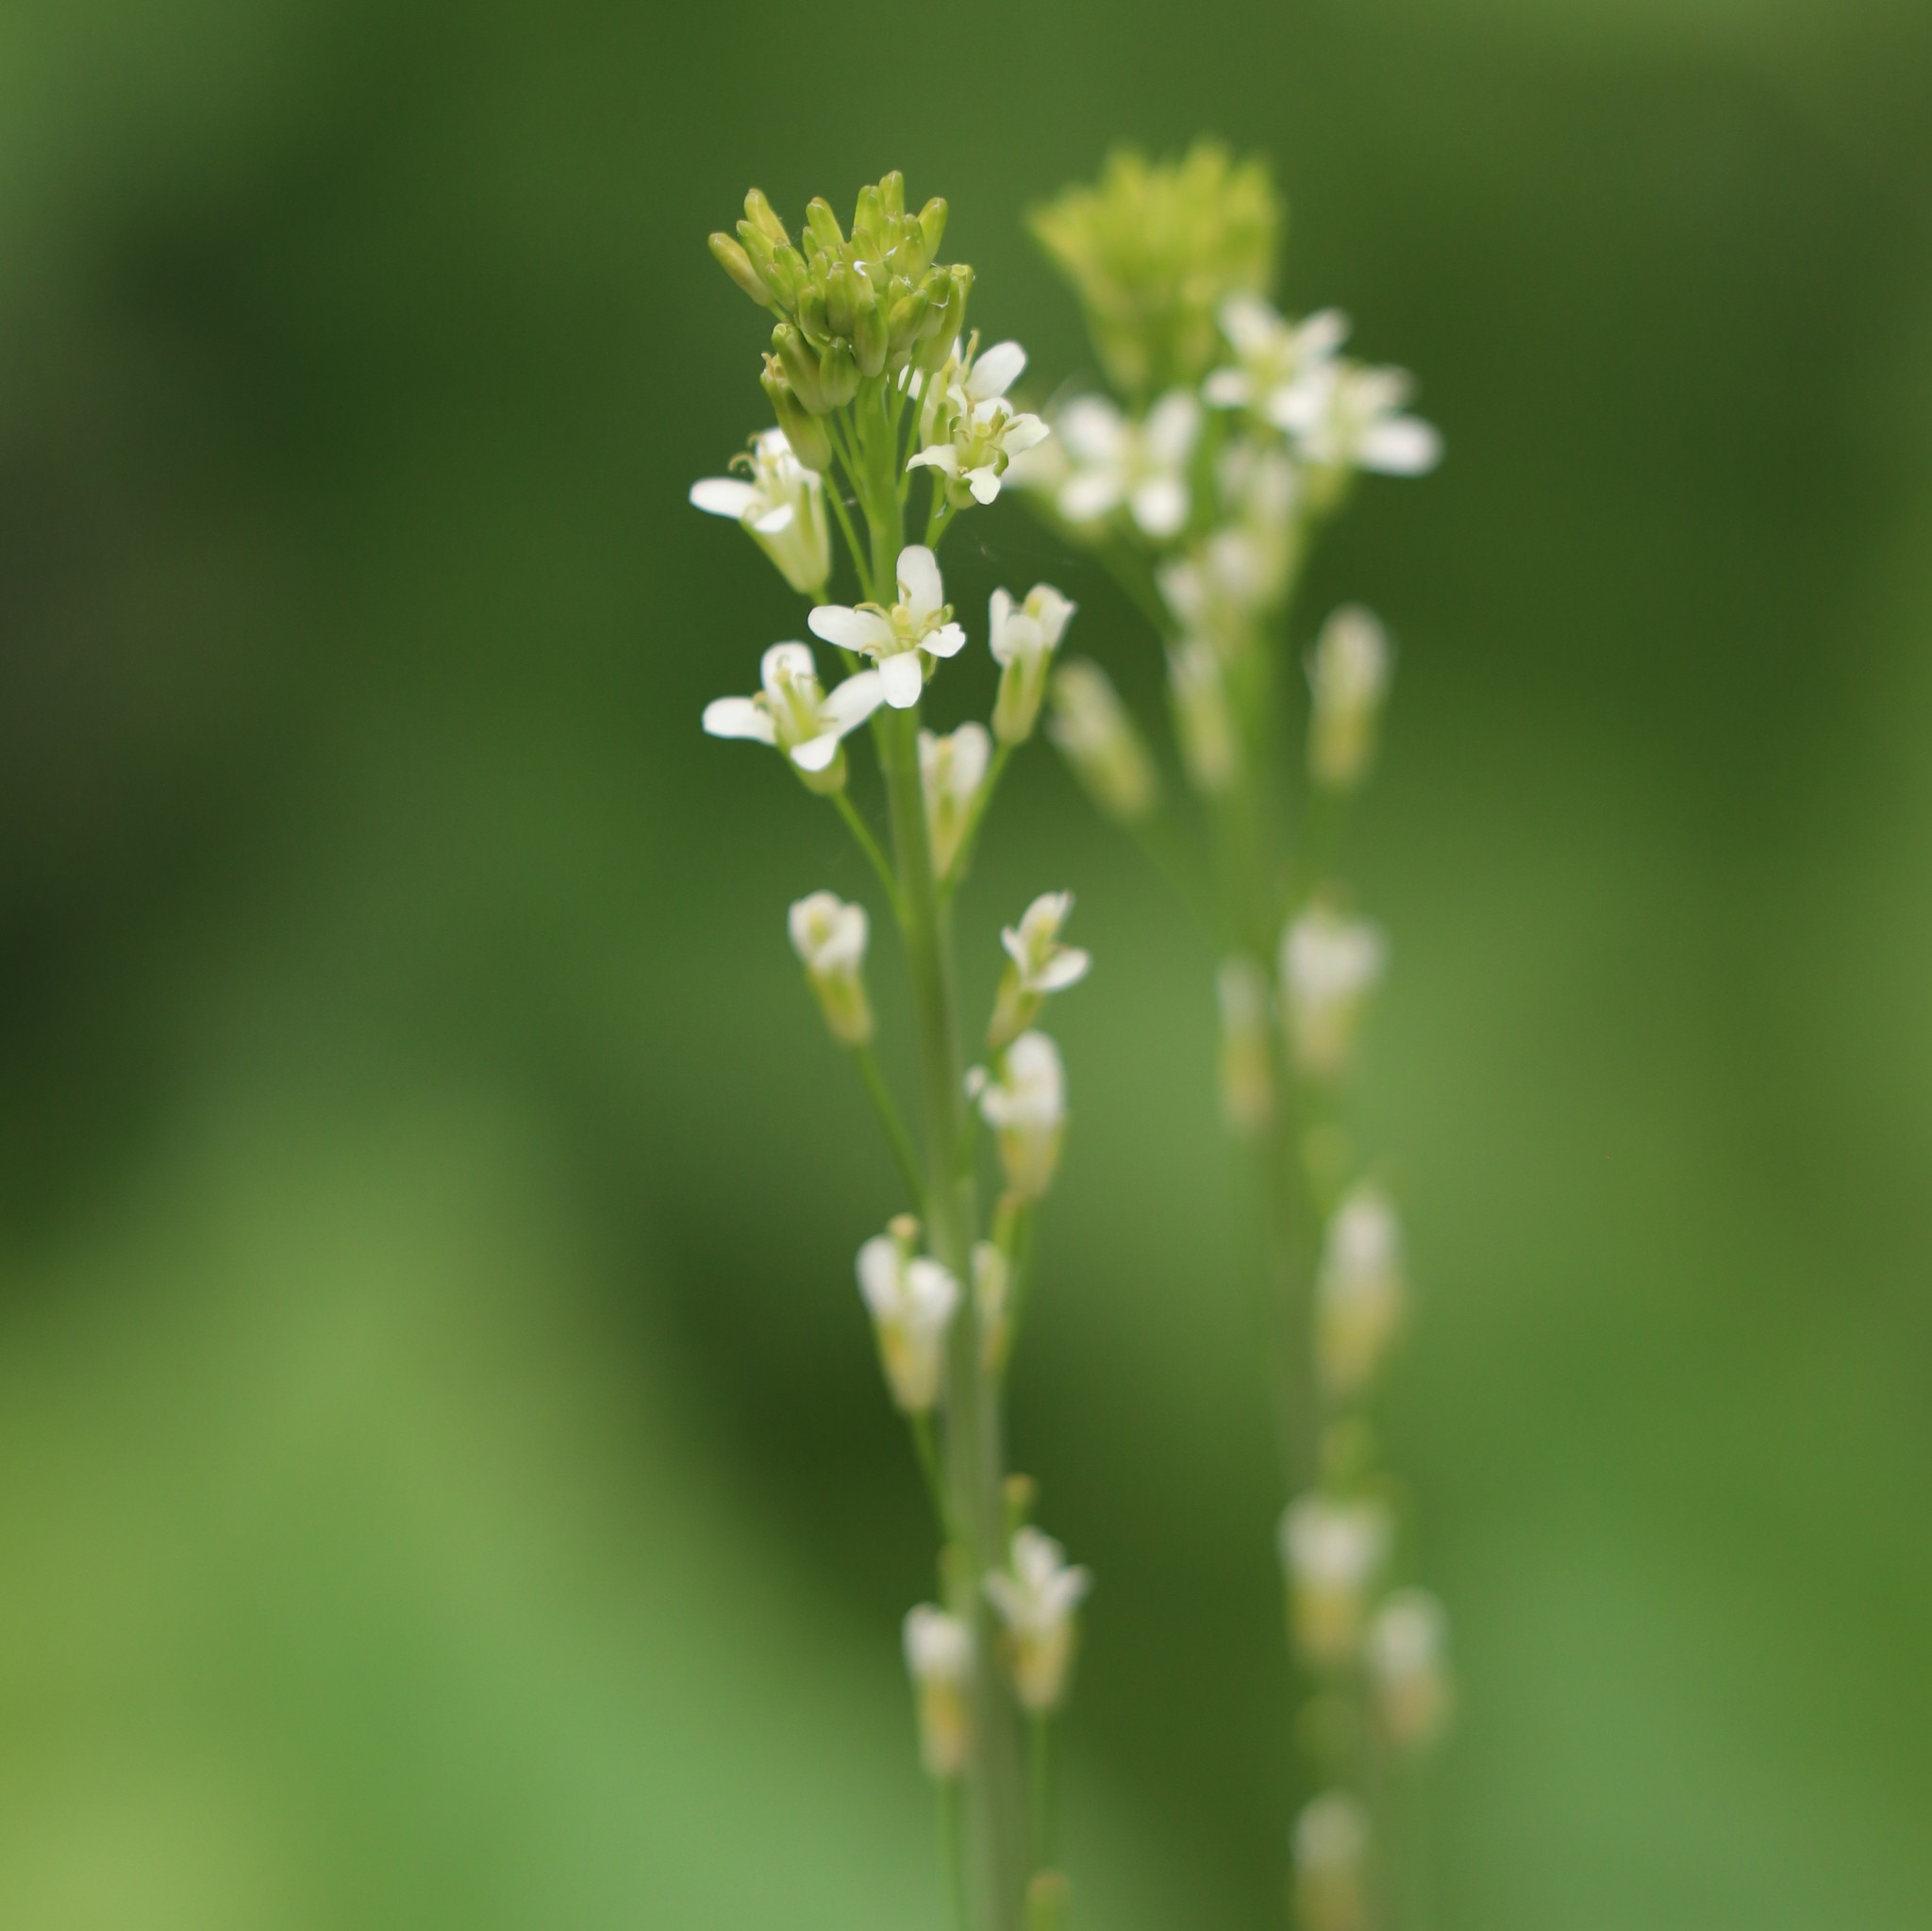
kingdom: Plantae
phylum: Tracheophyta
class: Magnoliopsida
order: Brassicales
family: Brassicaceae
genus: Turritis
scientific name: Turritis glabra
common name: Tower rockcress
